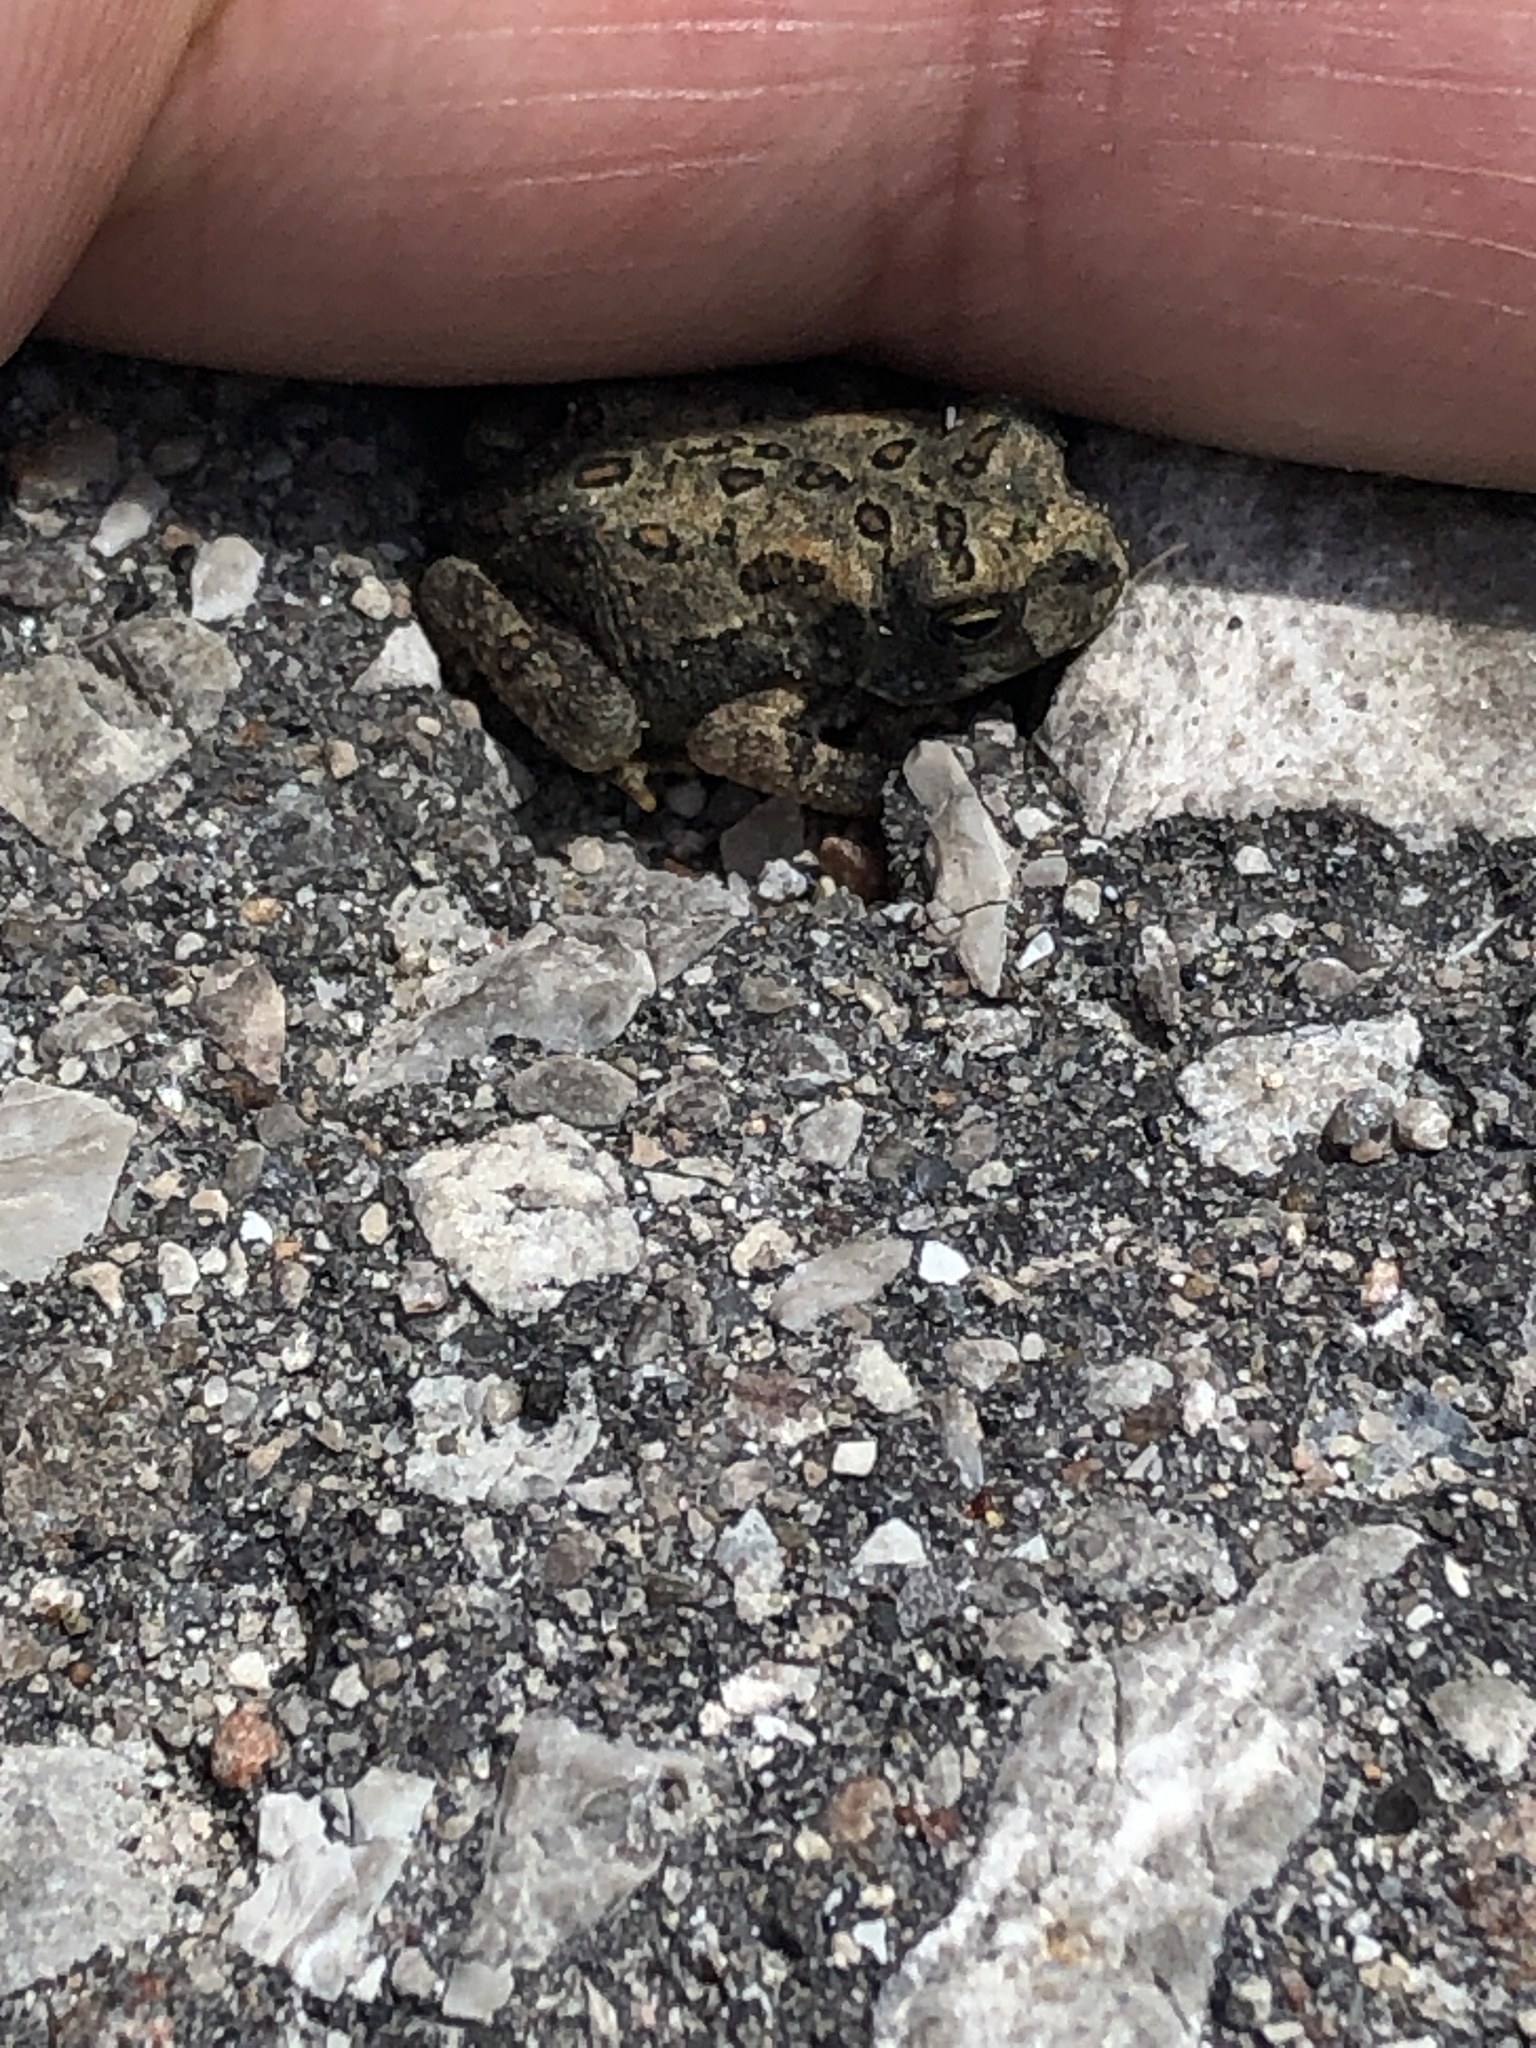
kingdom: Animalia
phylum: Chordata
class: Amphibia
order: Anura
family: Bufonidae
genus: Anaxyrus
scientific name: Anaxyrus americanus
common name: American toad
